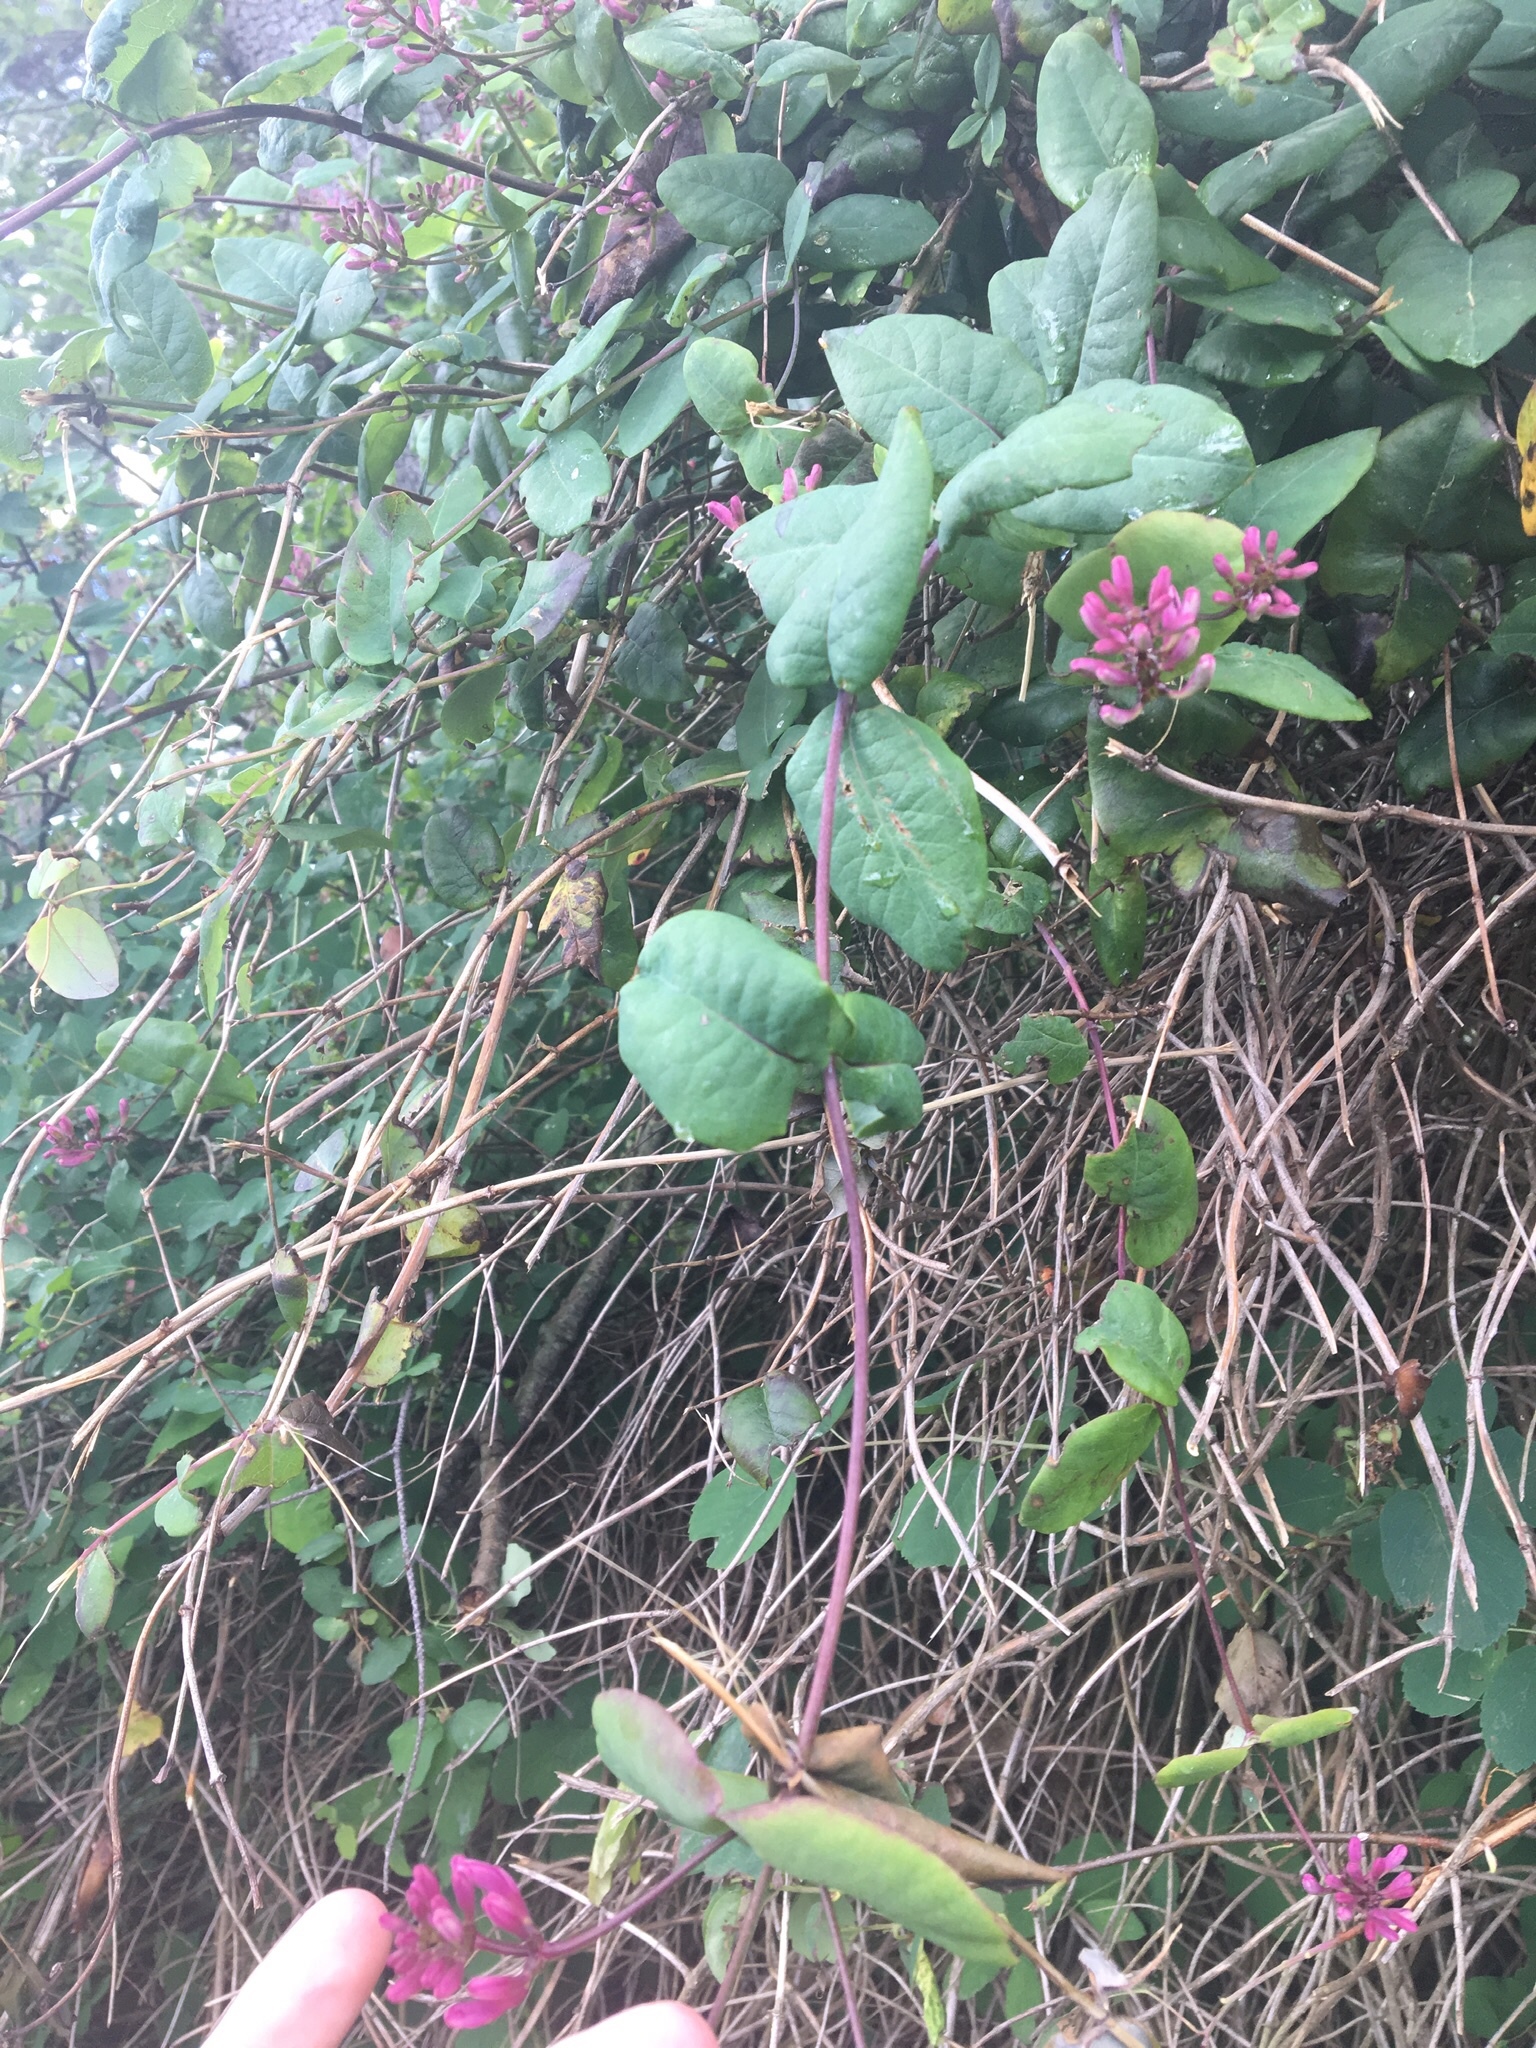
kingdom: Plantae
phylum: Tracheophyta
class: Magnoliopsida
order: Dipsacales
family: Caprifoliaceae
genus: Lonicera
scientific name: Lonicera hispidula
